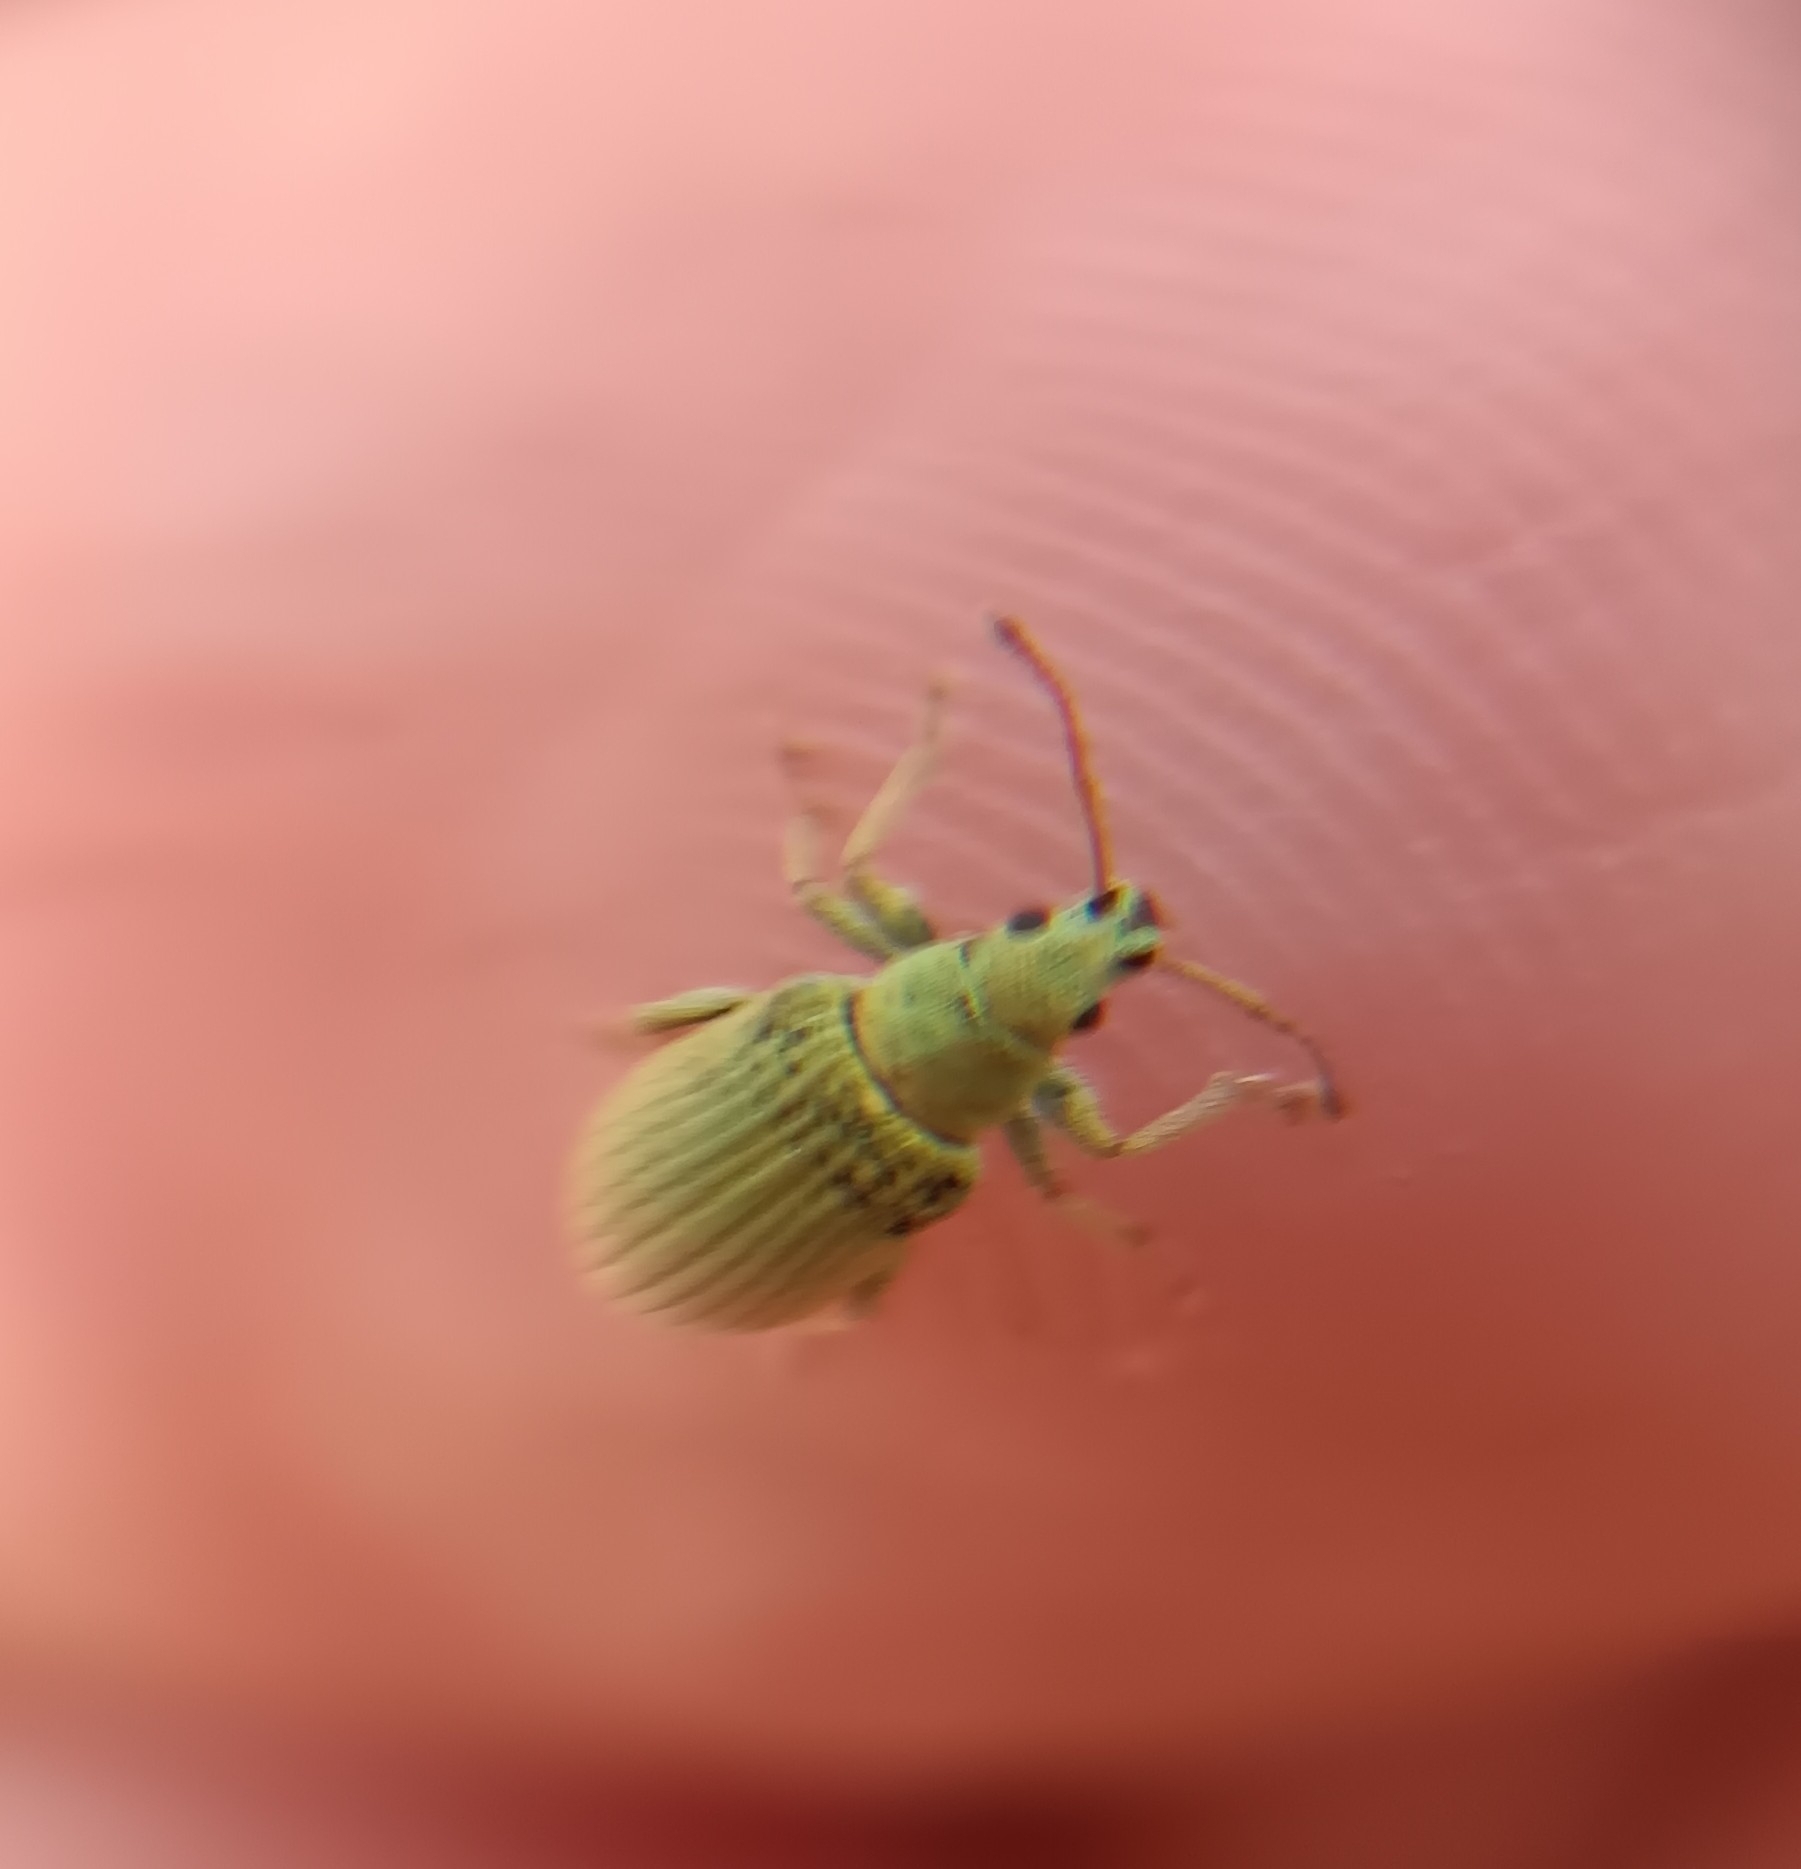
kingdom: Animalia
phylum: Arthropoda
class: Insecta
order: Coleoptera
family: Curculionidae
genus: Phyllobius
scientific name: Phyllobius virideaeris
